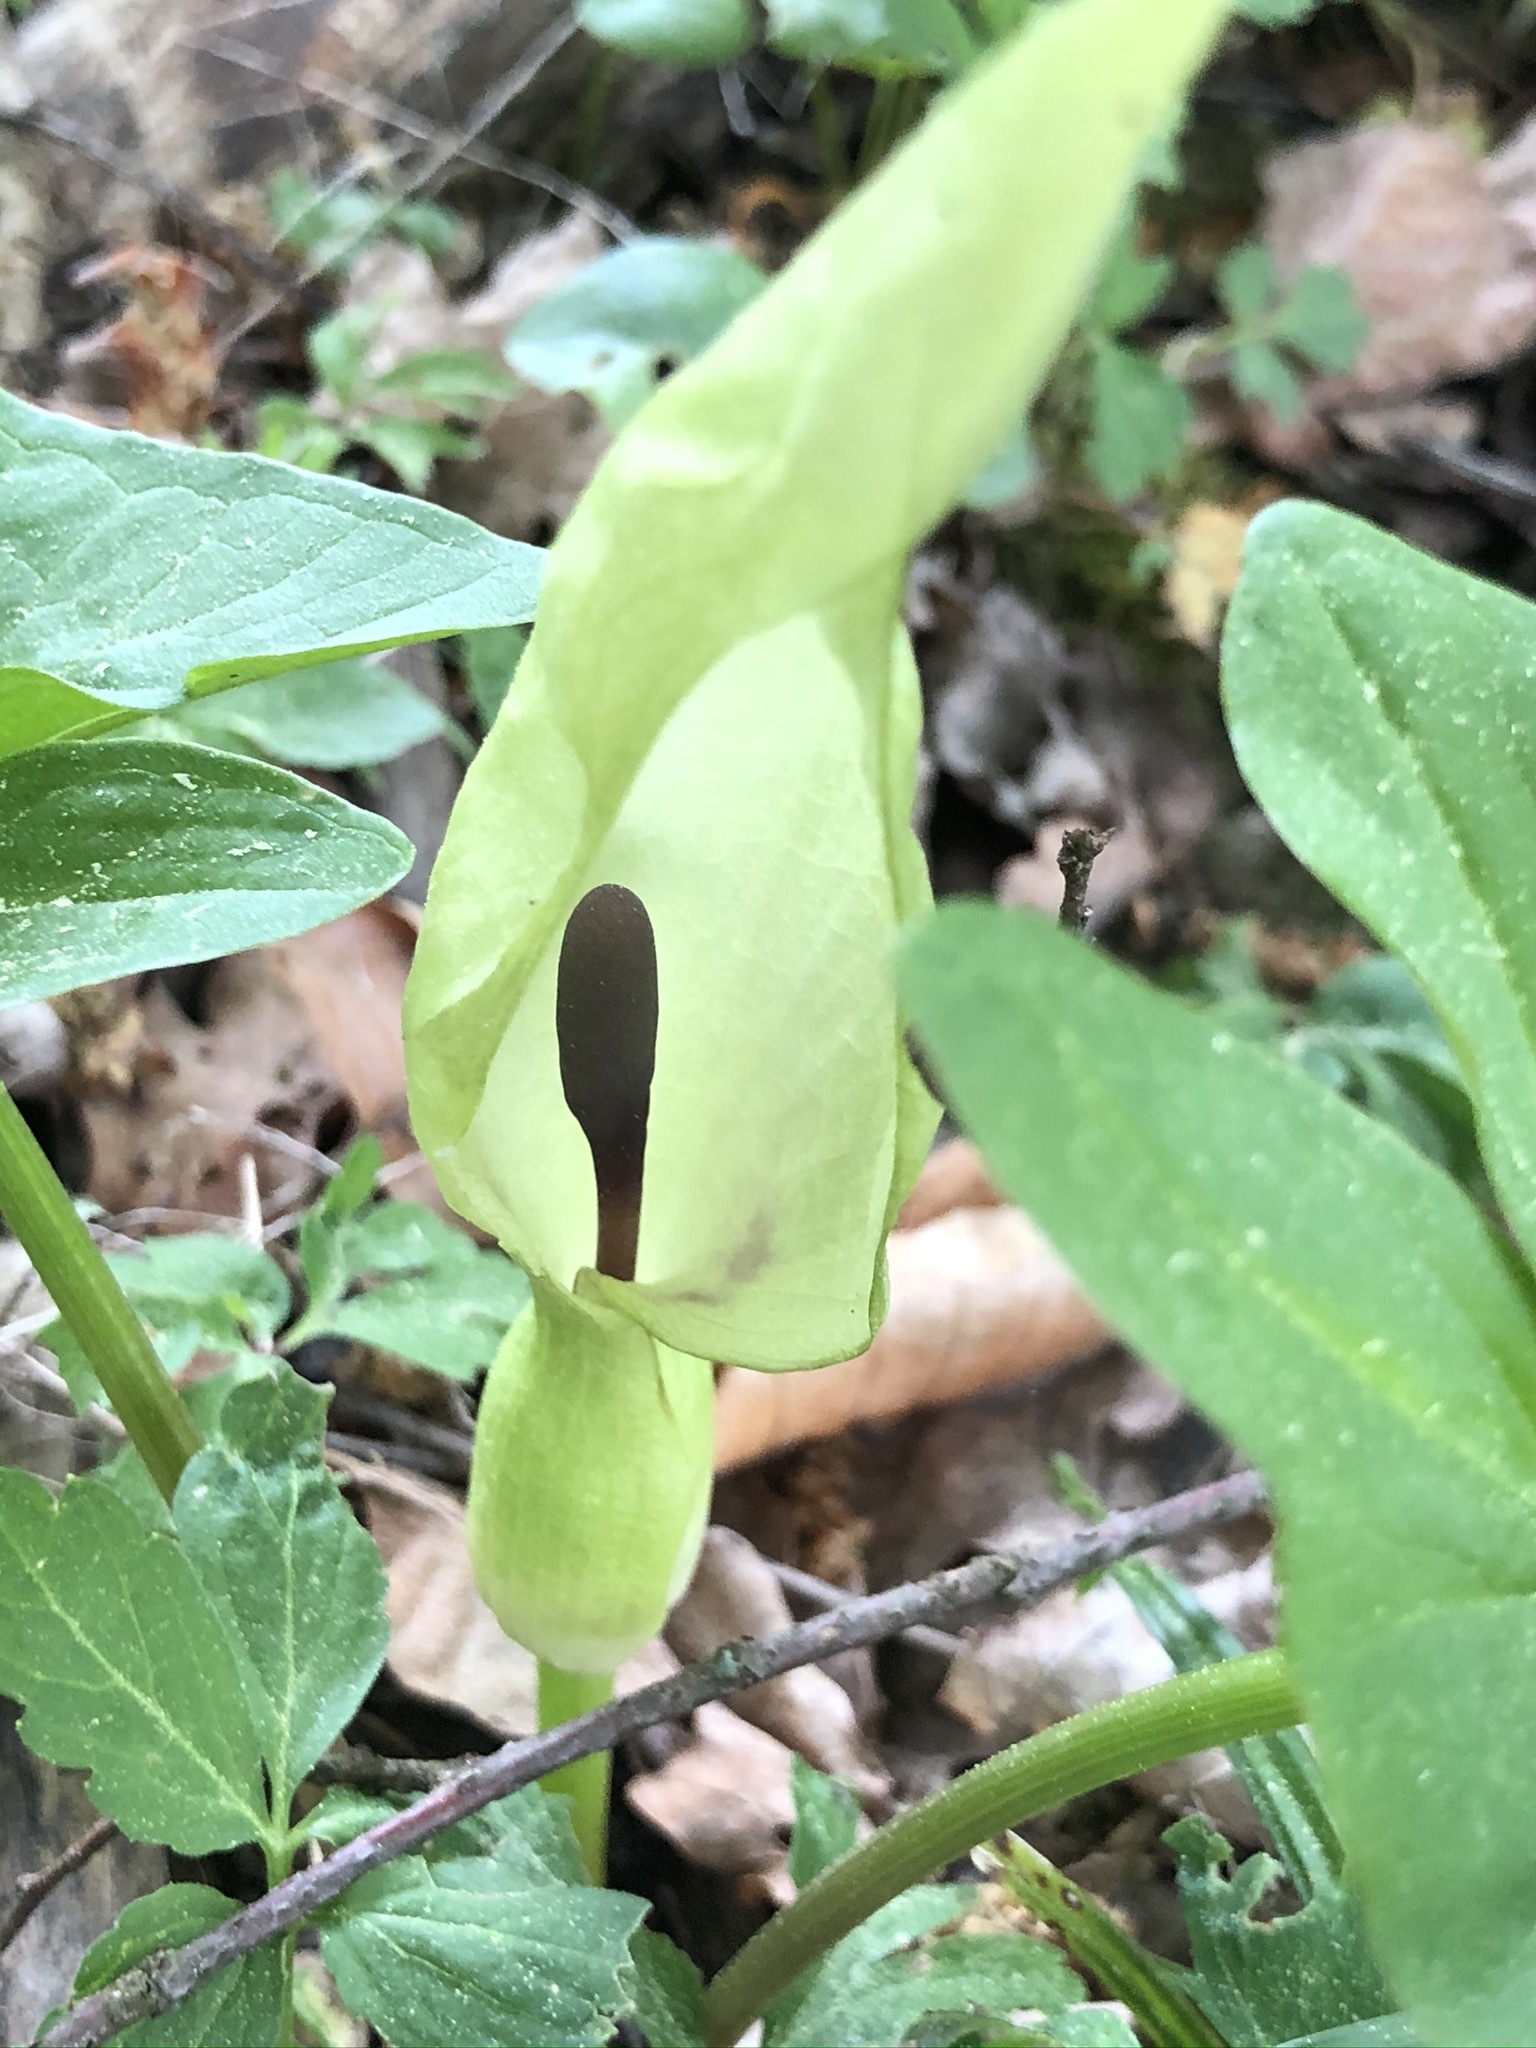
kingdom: Plantae
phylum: Tracheophyta
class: Liliopsida
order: Alismatales
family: Araceae
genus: Arum
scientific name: Arum maculatum
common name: Lords-and-ladies
